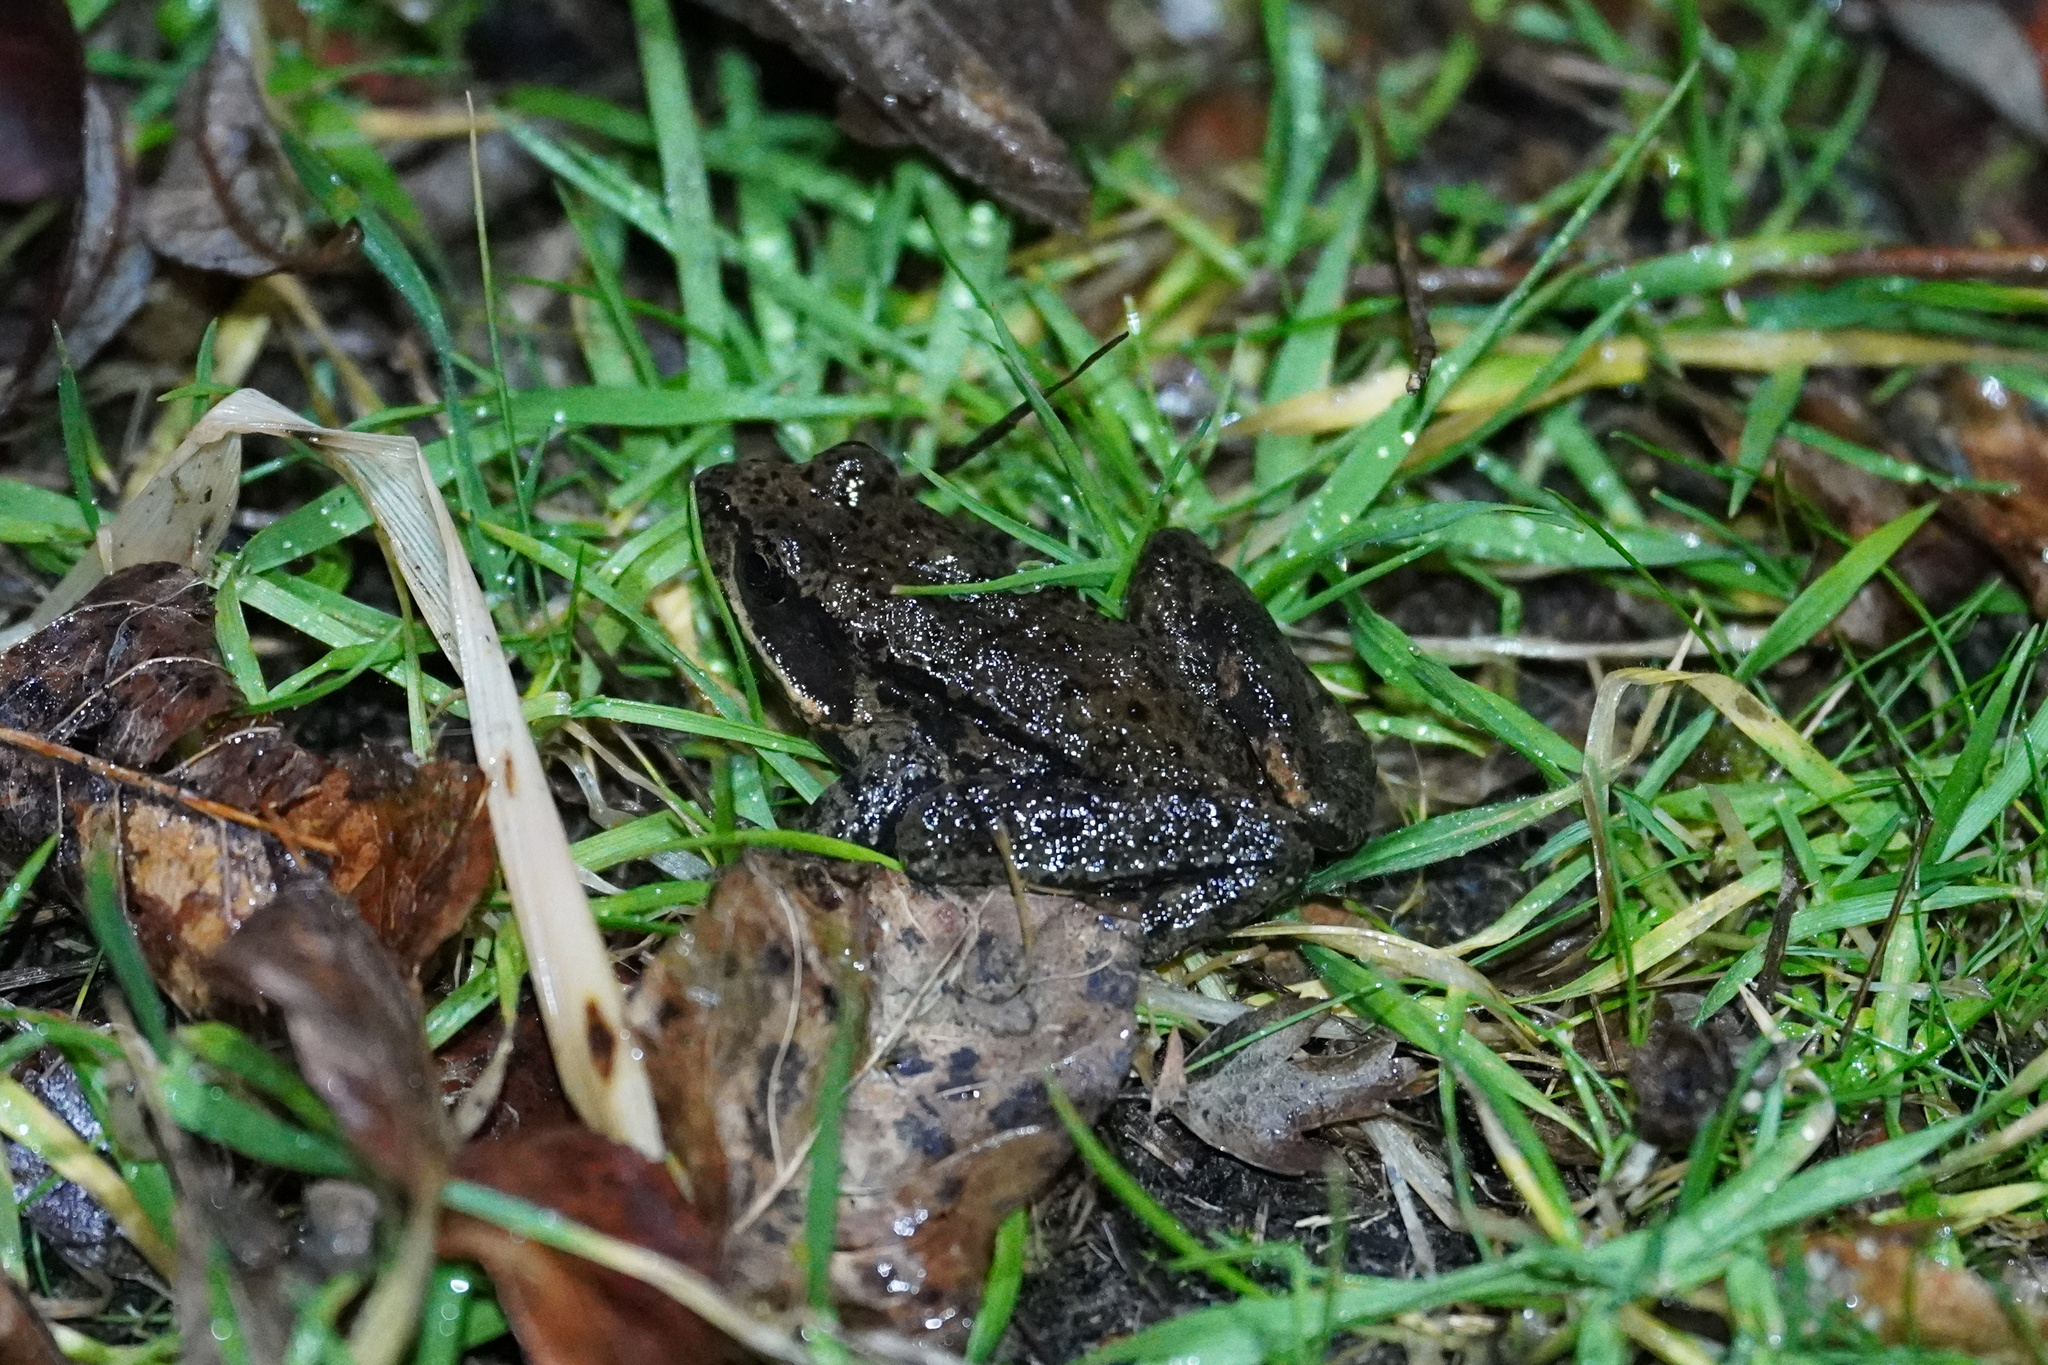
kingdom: Animalia
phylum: Chordata
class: Amphibia
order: Anura
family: Ranidae
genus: Rana
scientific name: Rana aurora
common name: Red-legged frog
